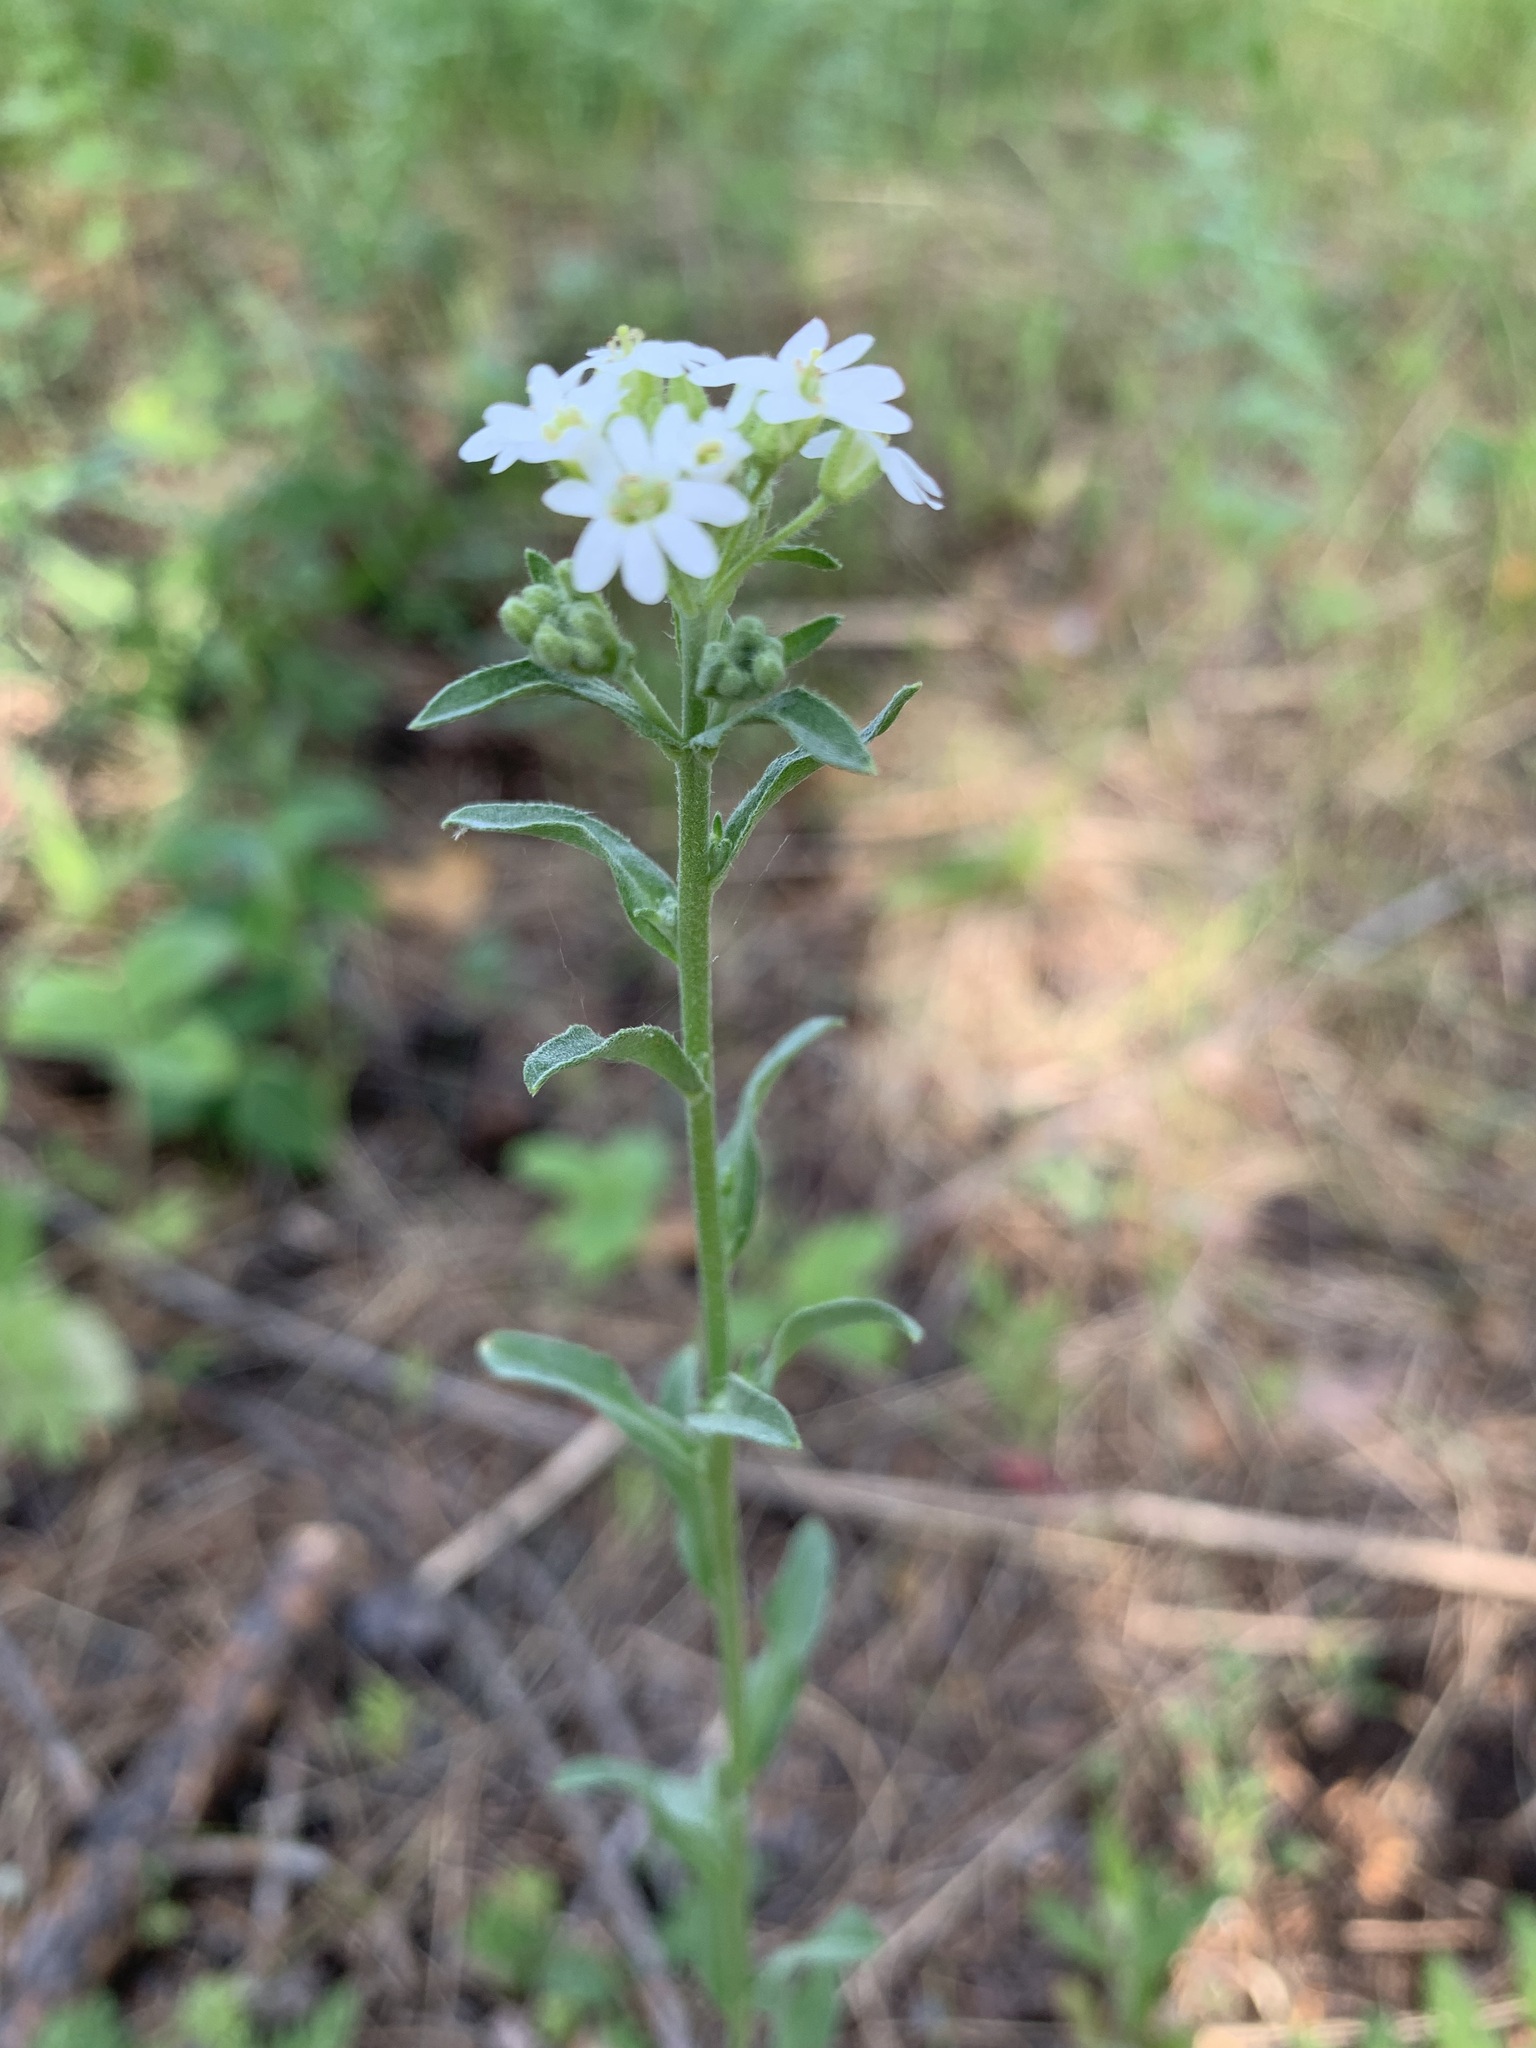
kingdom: Plantae
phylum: Tracheophyta
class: Magnoliopsida
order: Brassicales
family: Brassicaceae
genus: Berteroa
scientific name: Berteroa incana
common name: Hoary alison
